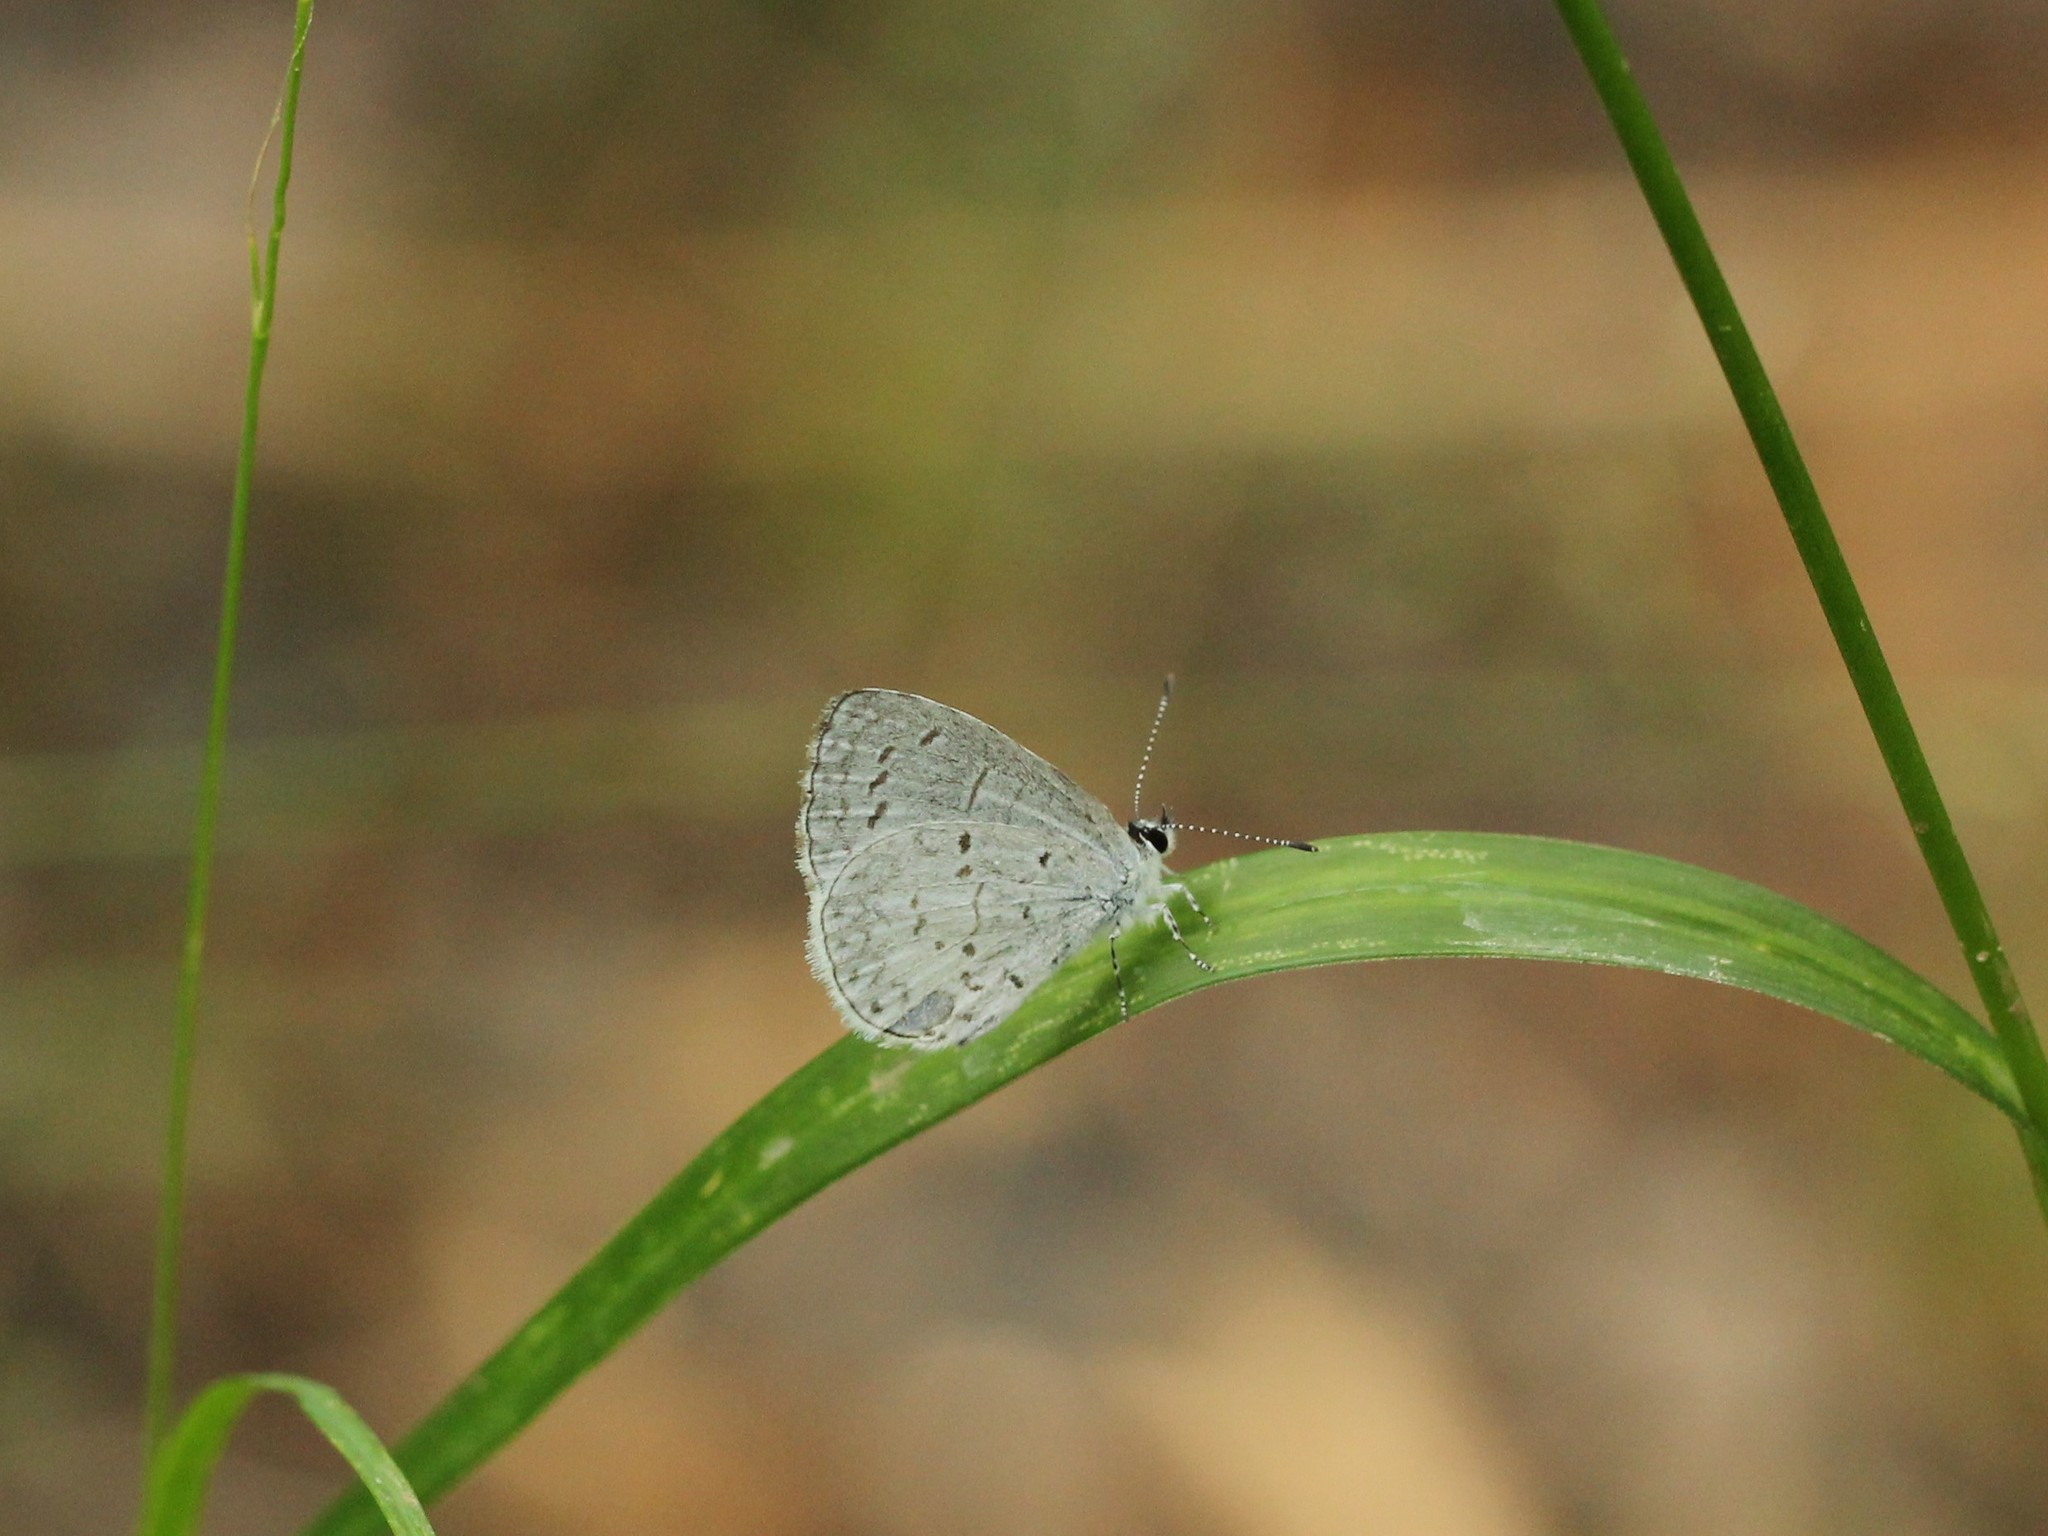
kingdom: Animalia
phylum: Arthropoda
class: Insecta
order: Lepidoptera
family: Lycaenidae
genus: Cyaniris
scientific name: Cyaniris neglecta
